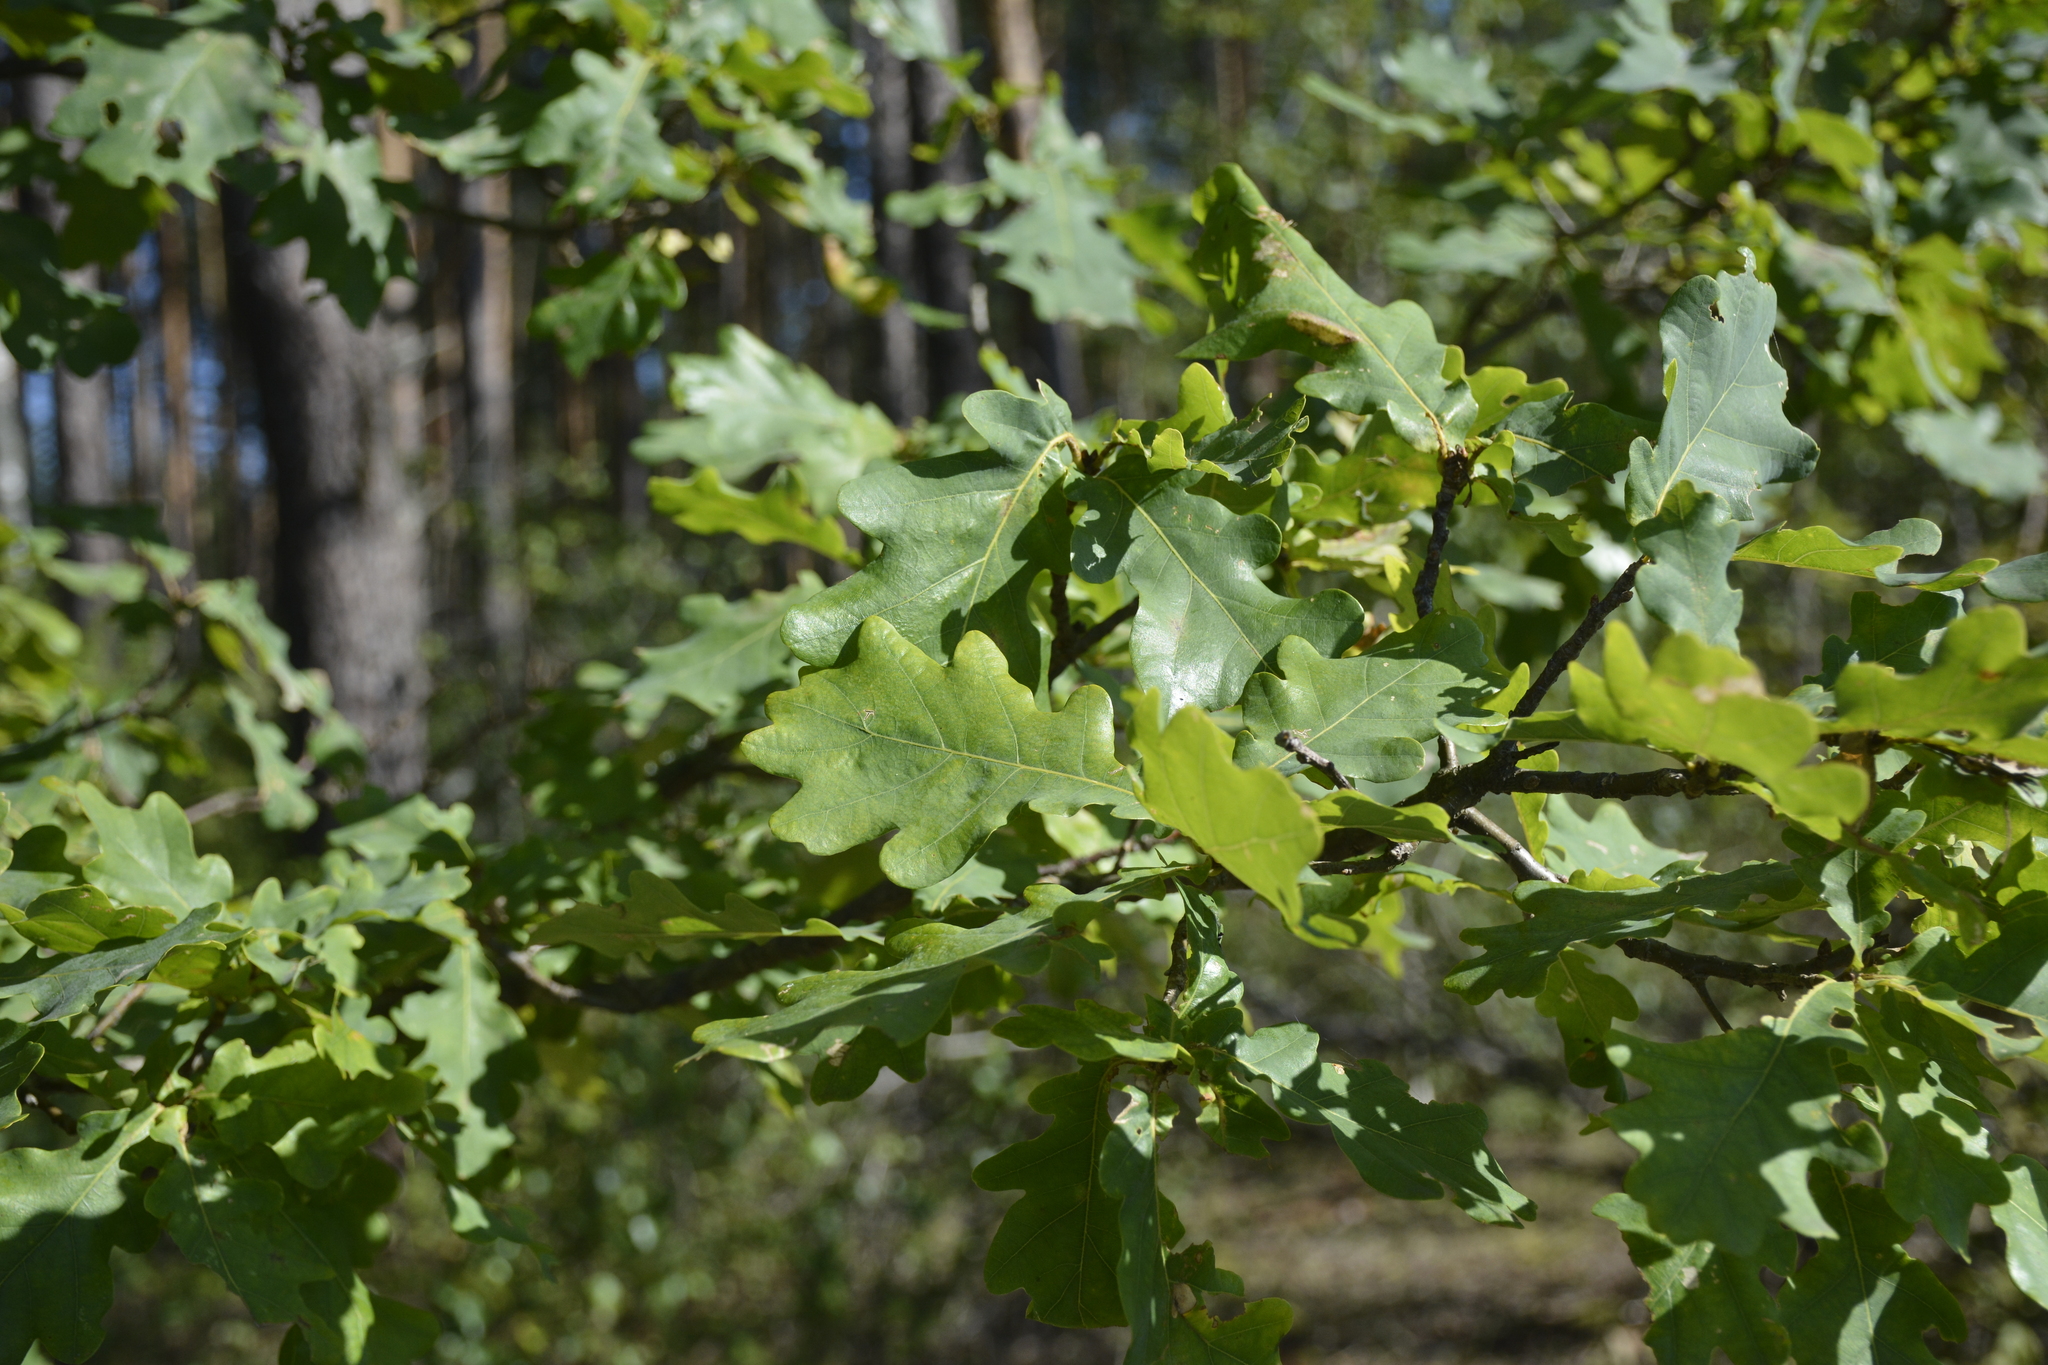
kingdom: Plantae
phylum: Tracheophyta
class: Magnoliopsida
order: Fagales
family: Fagaceae
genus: Quercus
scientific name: Quercus robur
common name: Pedunculate oak
